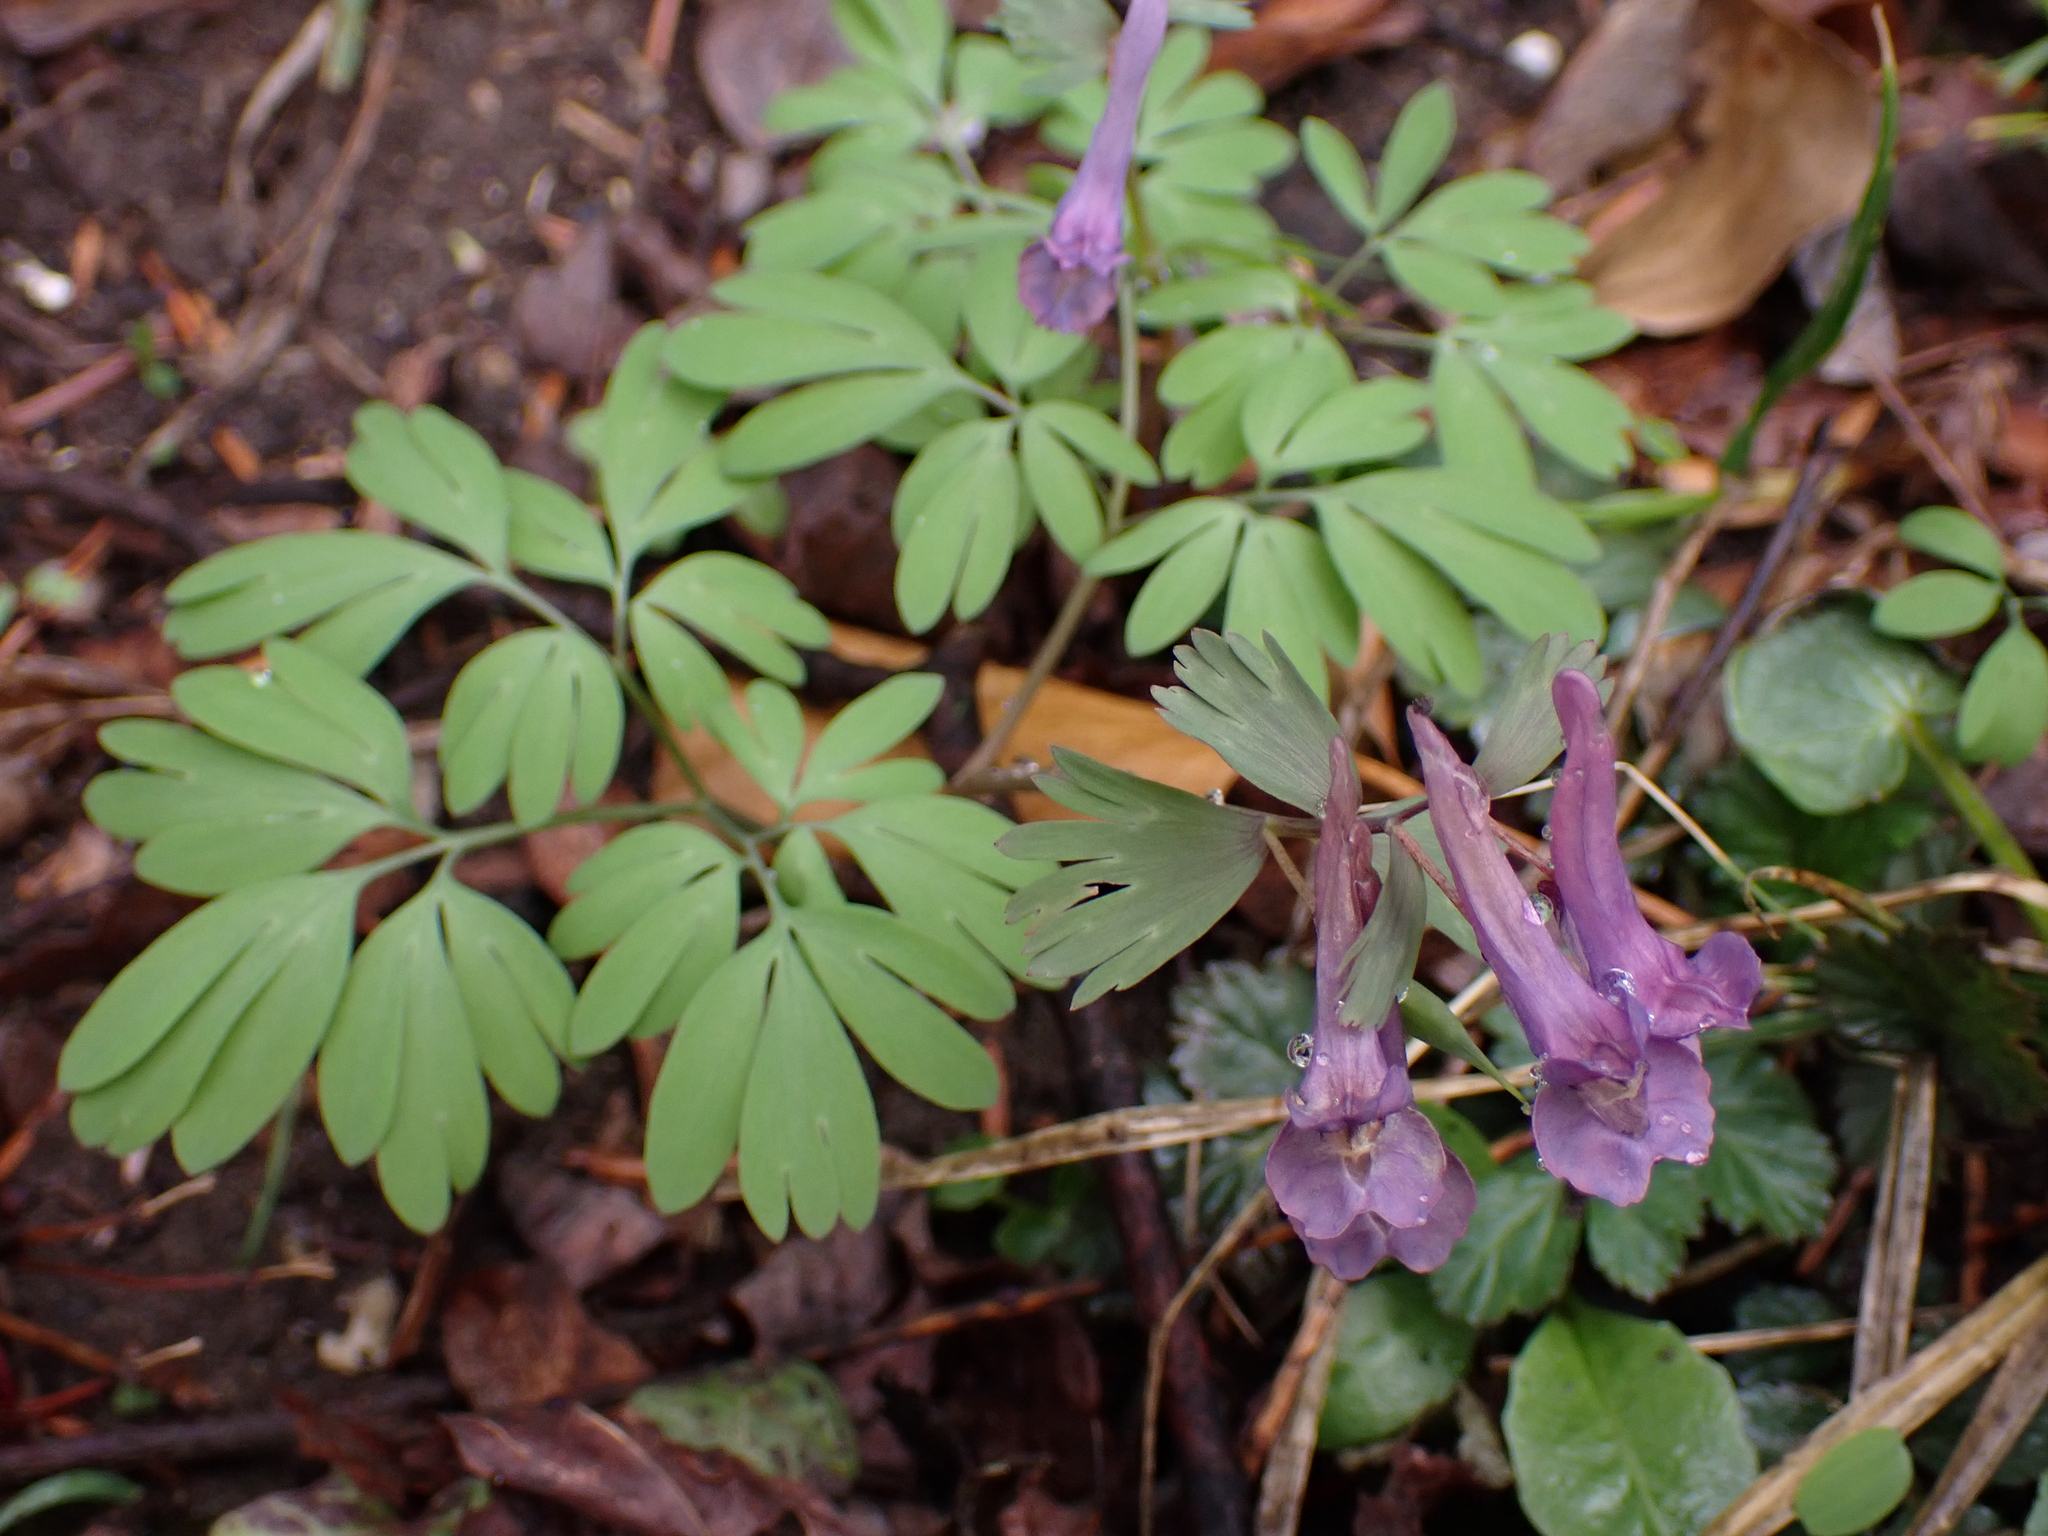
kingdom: Plantae
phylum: Tracheophyta
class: Magnoliopsida
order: Ranunculales
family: Papaveraceae
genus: Corydalis
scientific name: Corydalis solida
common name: Bird-in-a-bush
